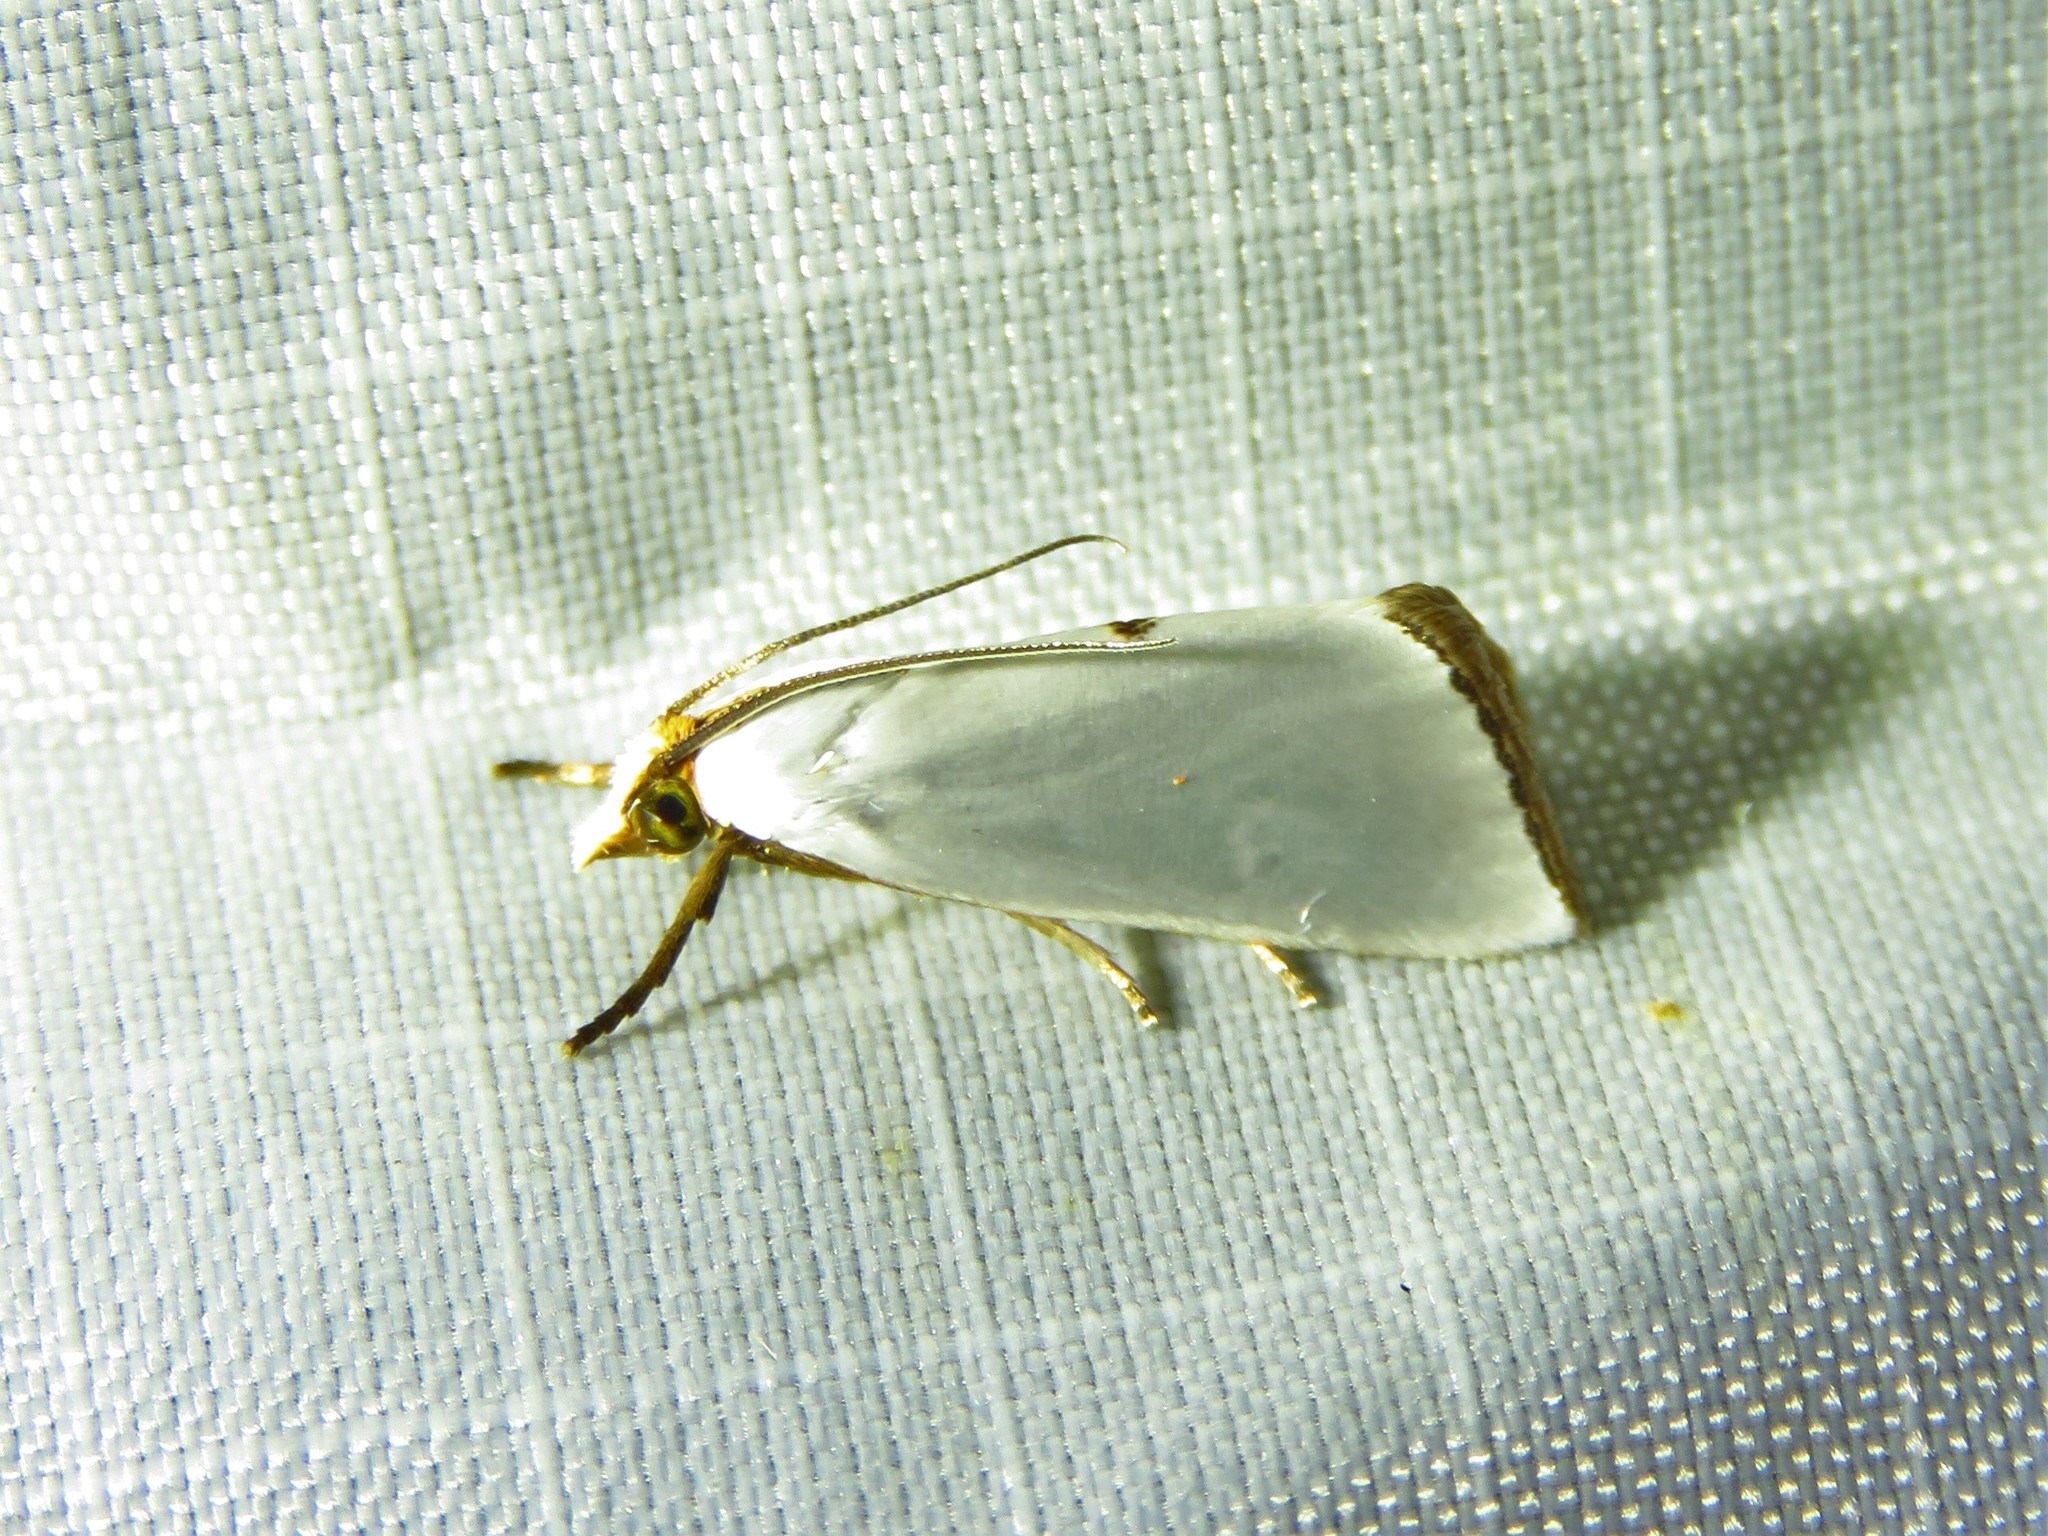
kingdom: Animalia
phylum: Arthropoda
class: Insecta
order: Lepidoptera
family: Crambidae
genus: Argyria
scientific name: Argyria nivalis
